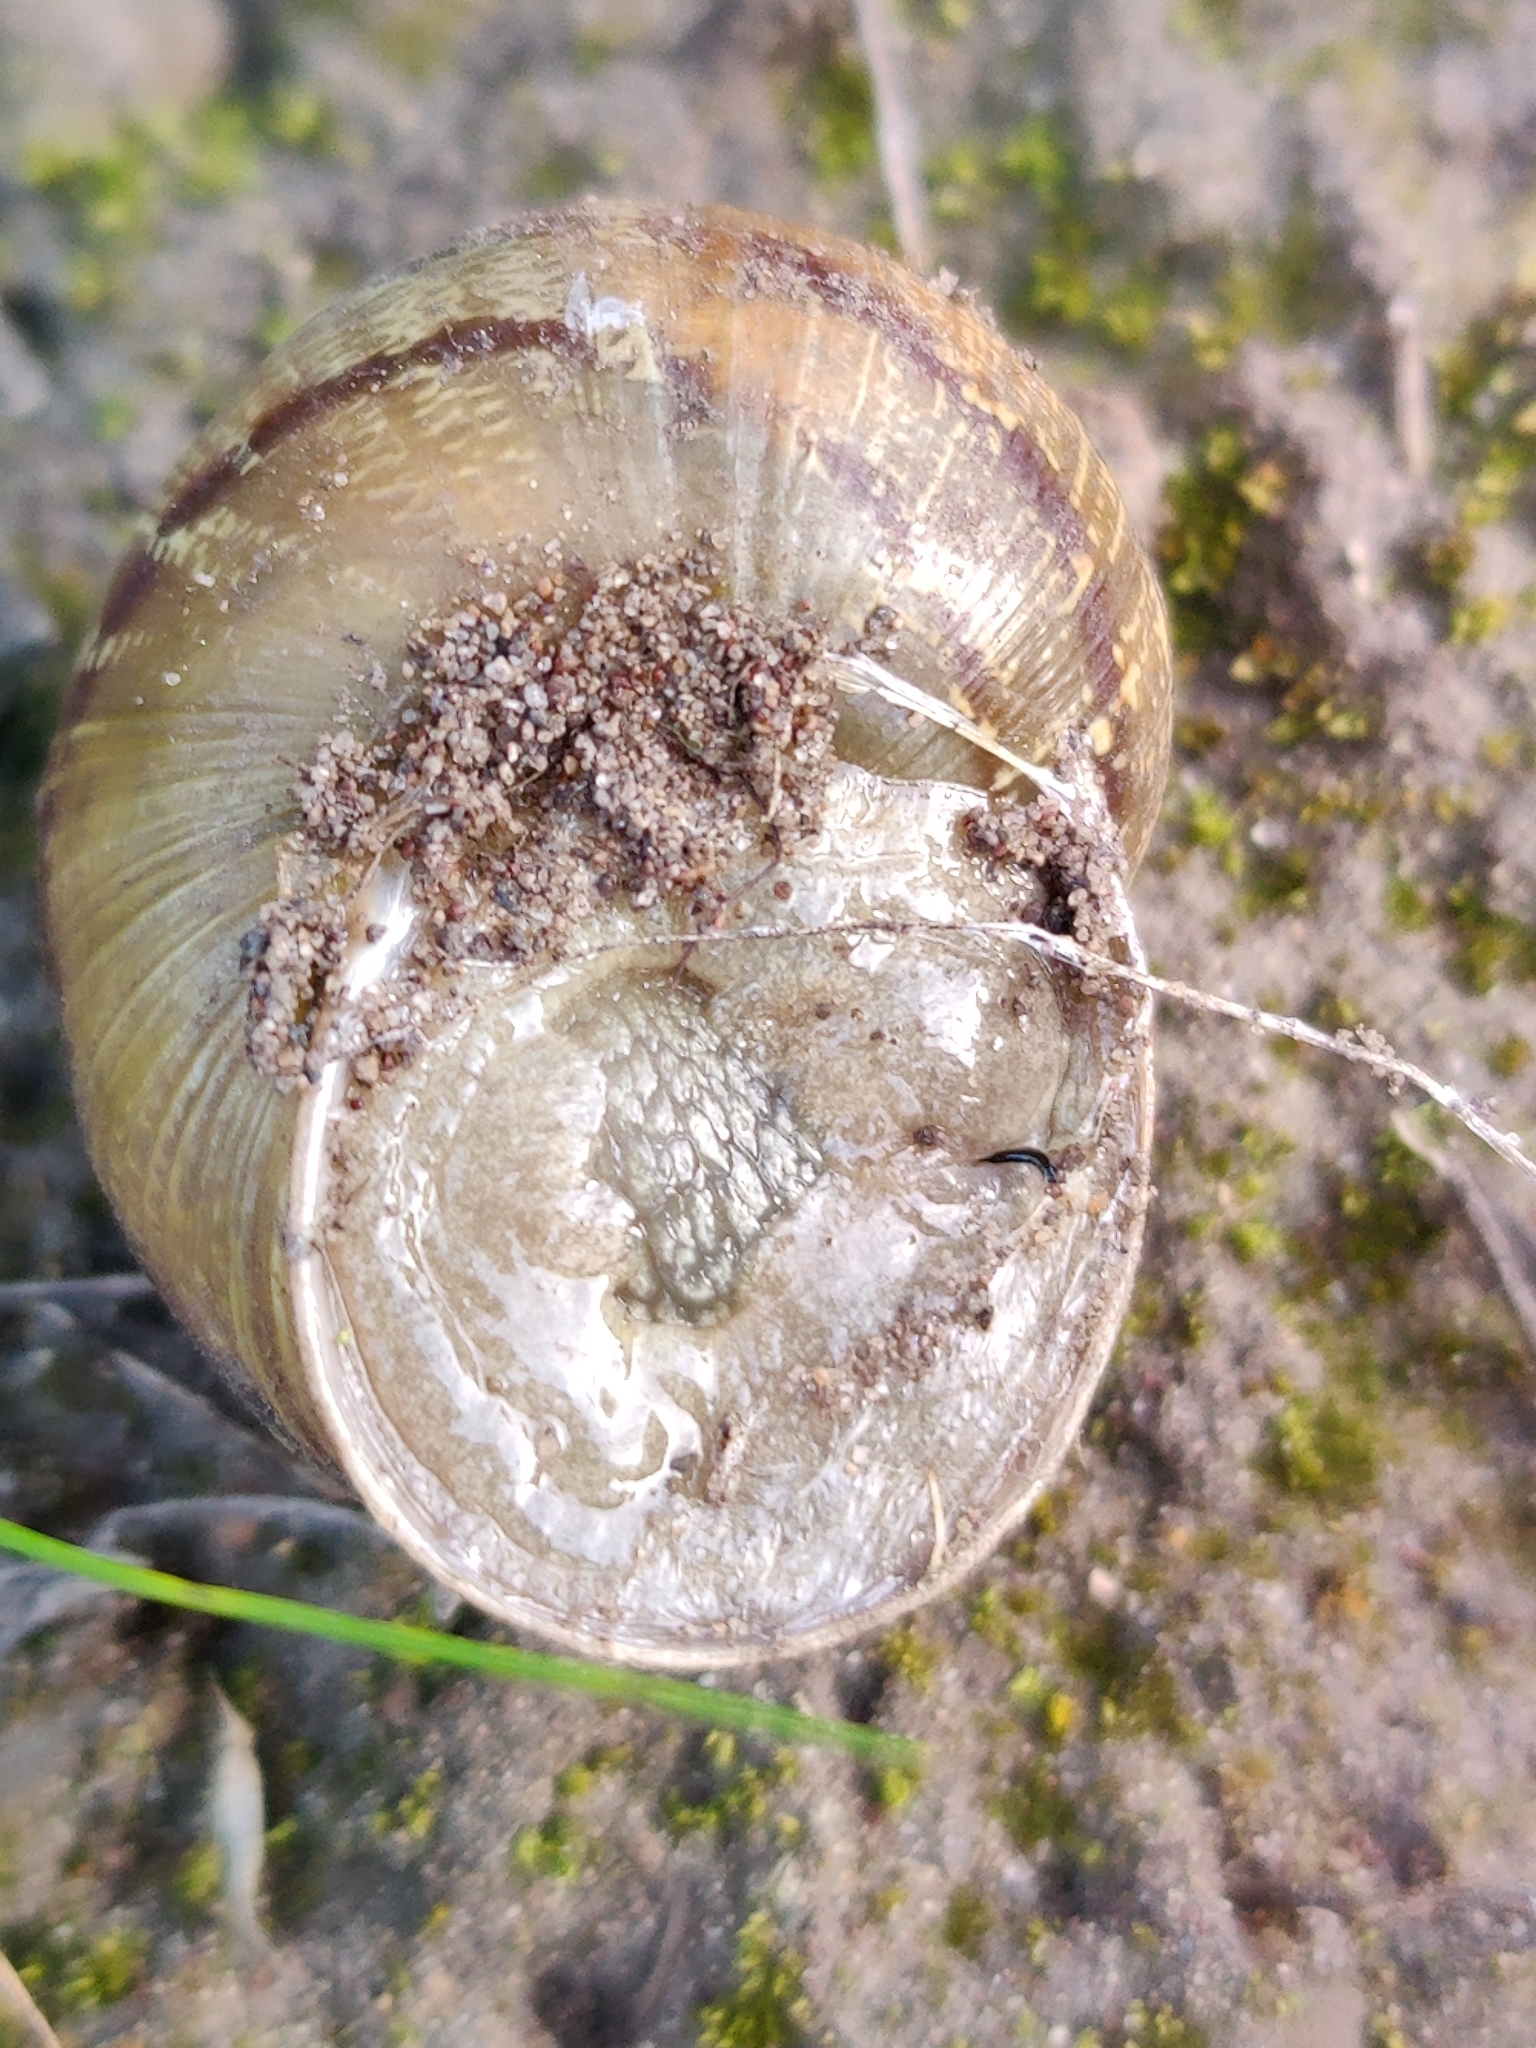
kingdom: Animalia
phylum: Mollusca
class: Gastropoda
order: Stylommatophora
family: Helicidae
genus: Cornu
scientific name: Cornu aspersum
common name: Brown garden snail
